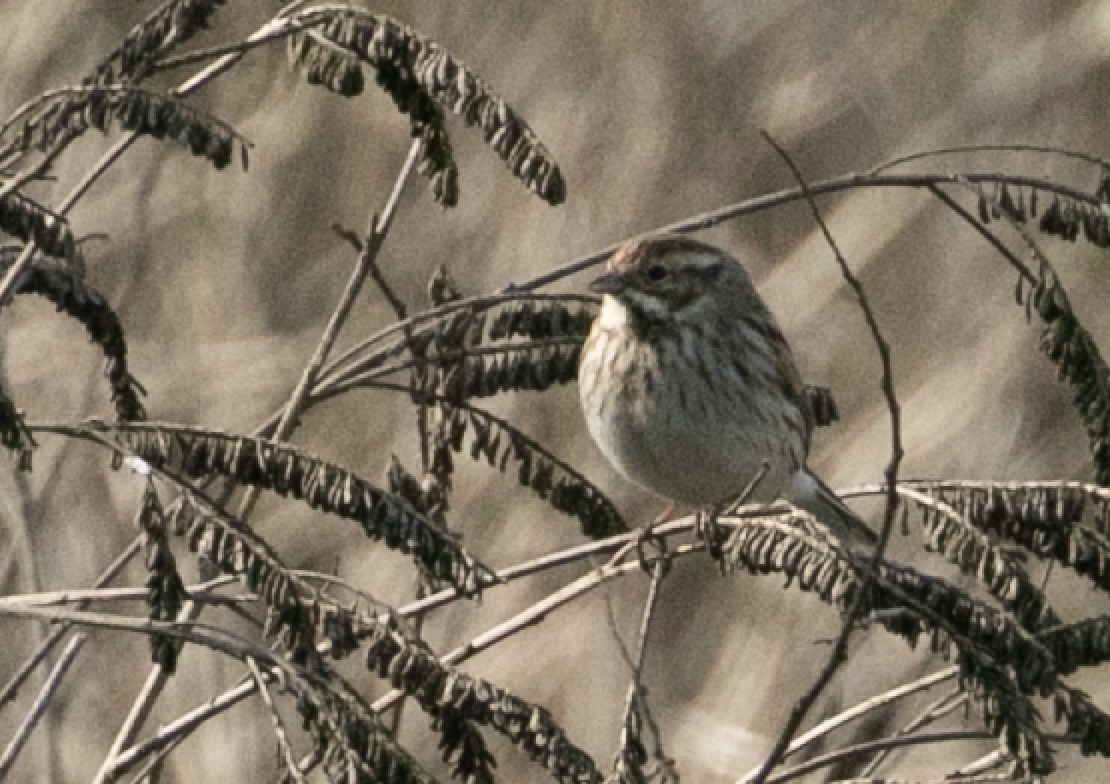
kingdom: Animalia
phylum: Chordata
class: Aves
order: Passeriformes
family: Emberizidae
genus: Emberiza
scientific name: Emberiza schoeniclus
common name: Reed bunting
